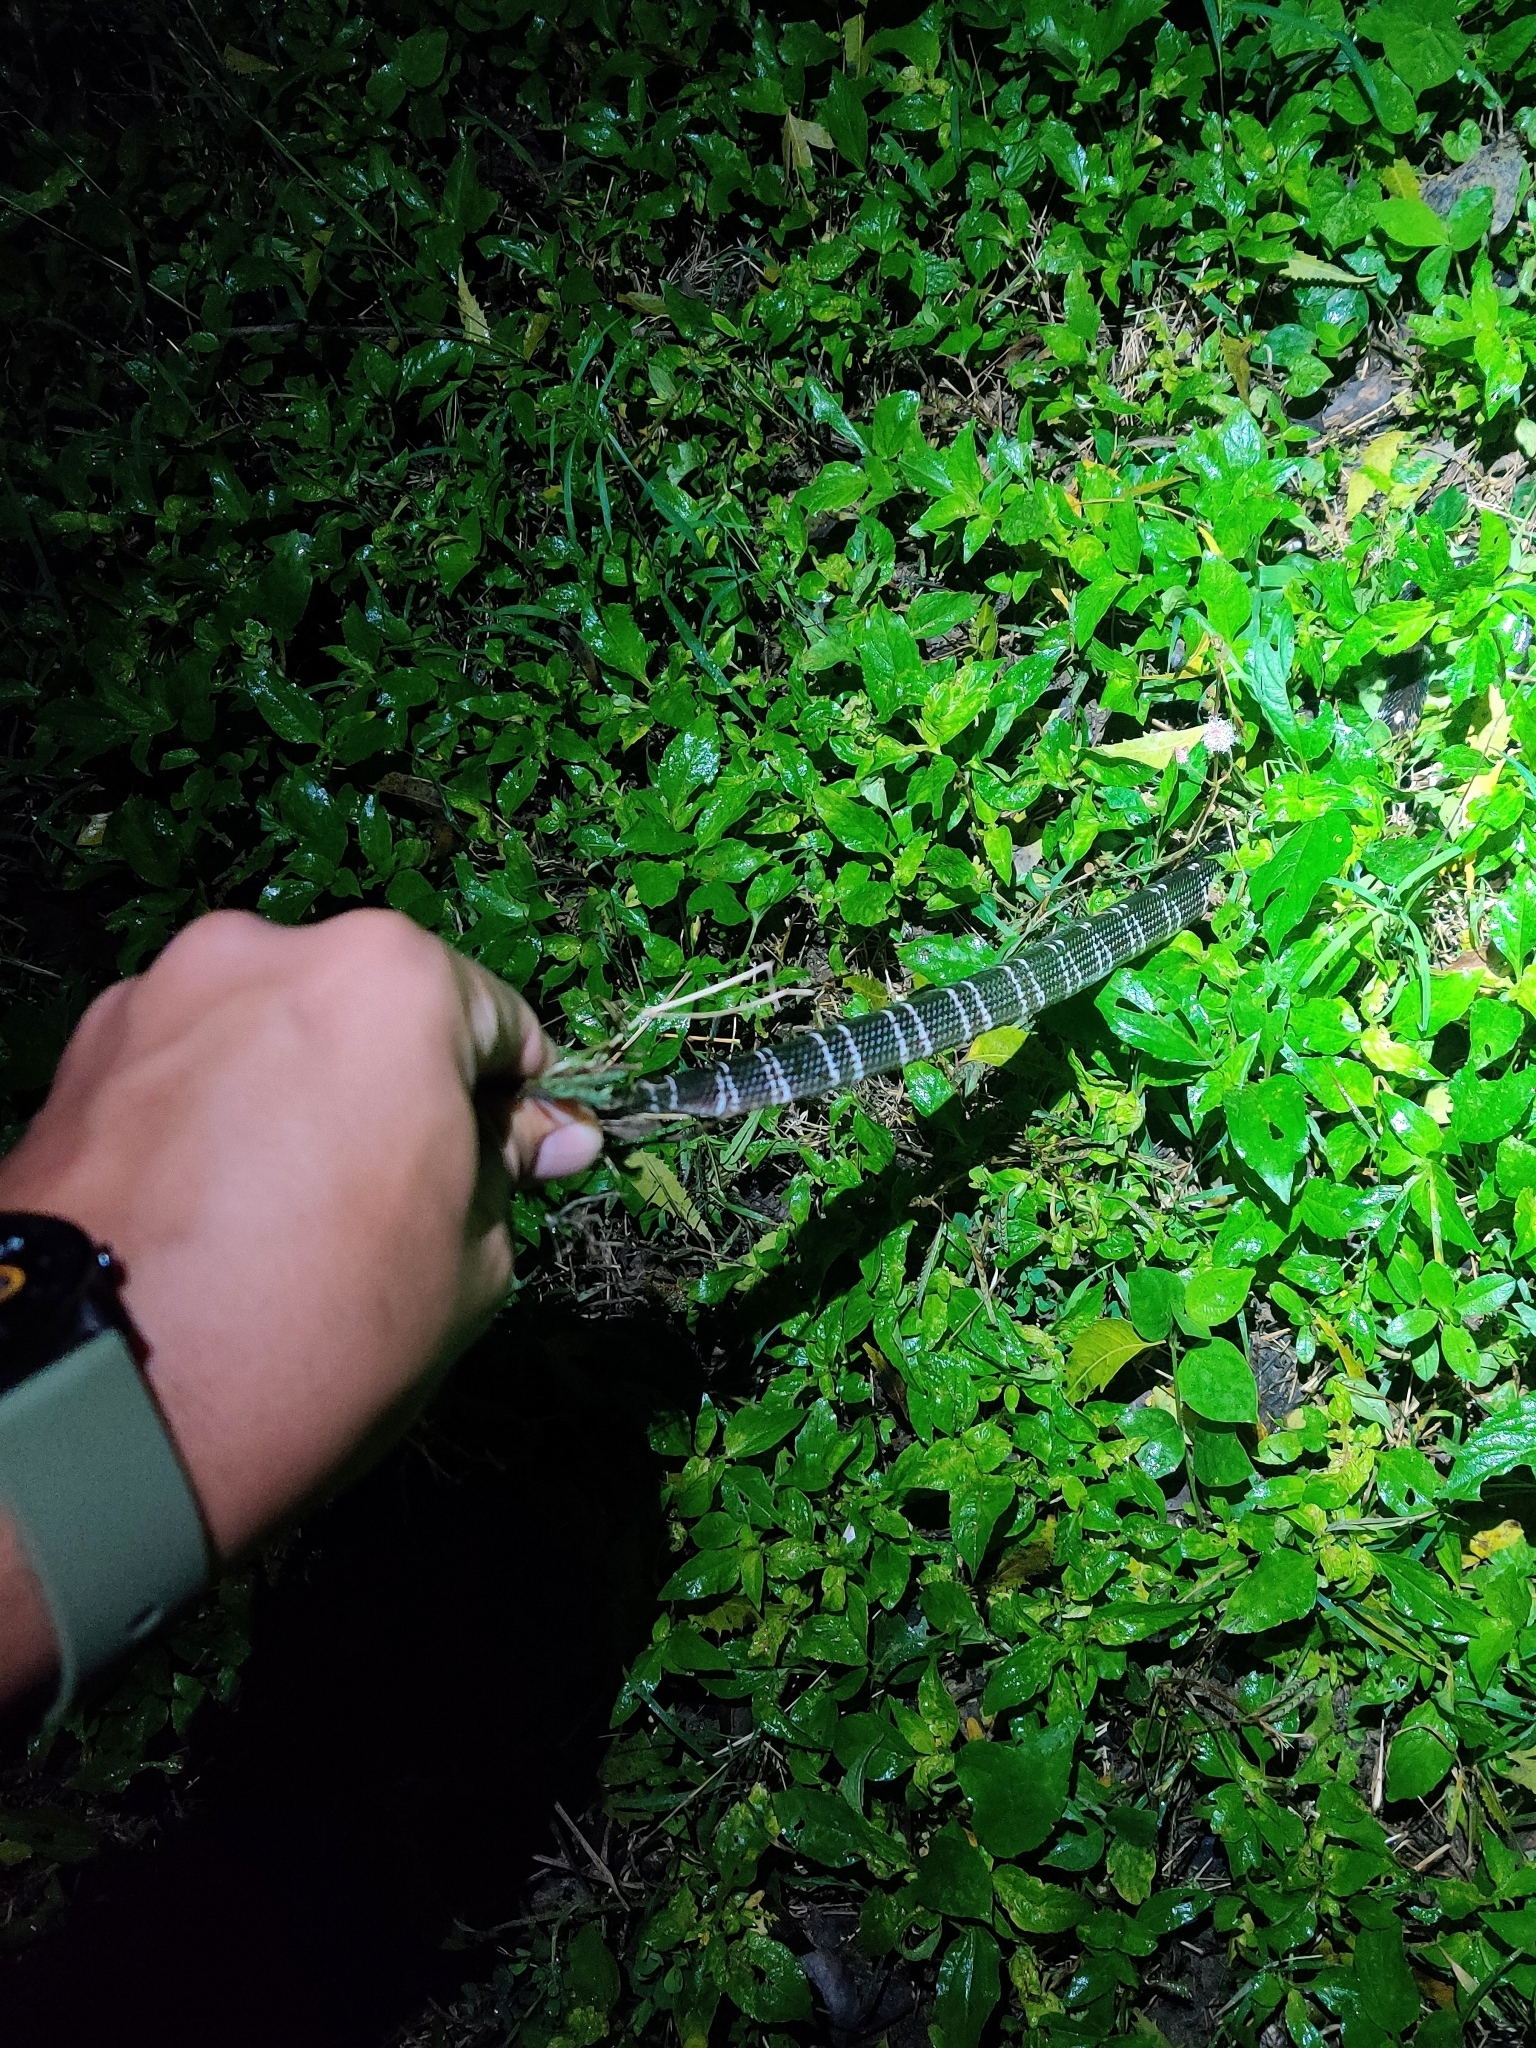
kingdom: Animalia
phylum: Chordata
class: Squamata
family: Elapidae
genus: Bungarus
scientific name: Bungarus caeruleus
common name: Common krait
